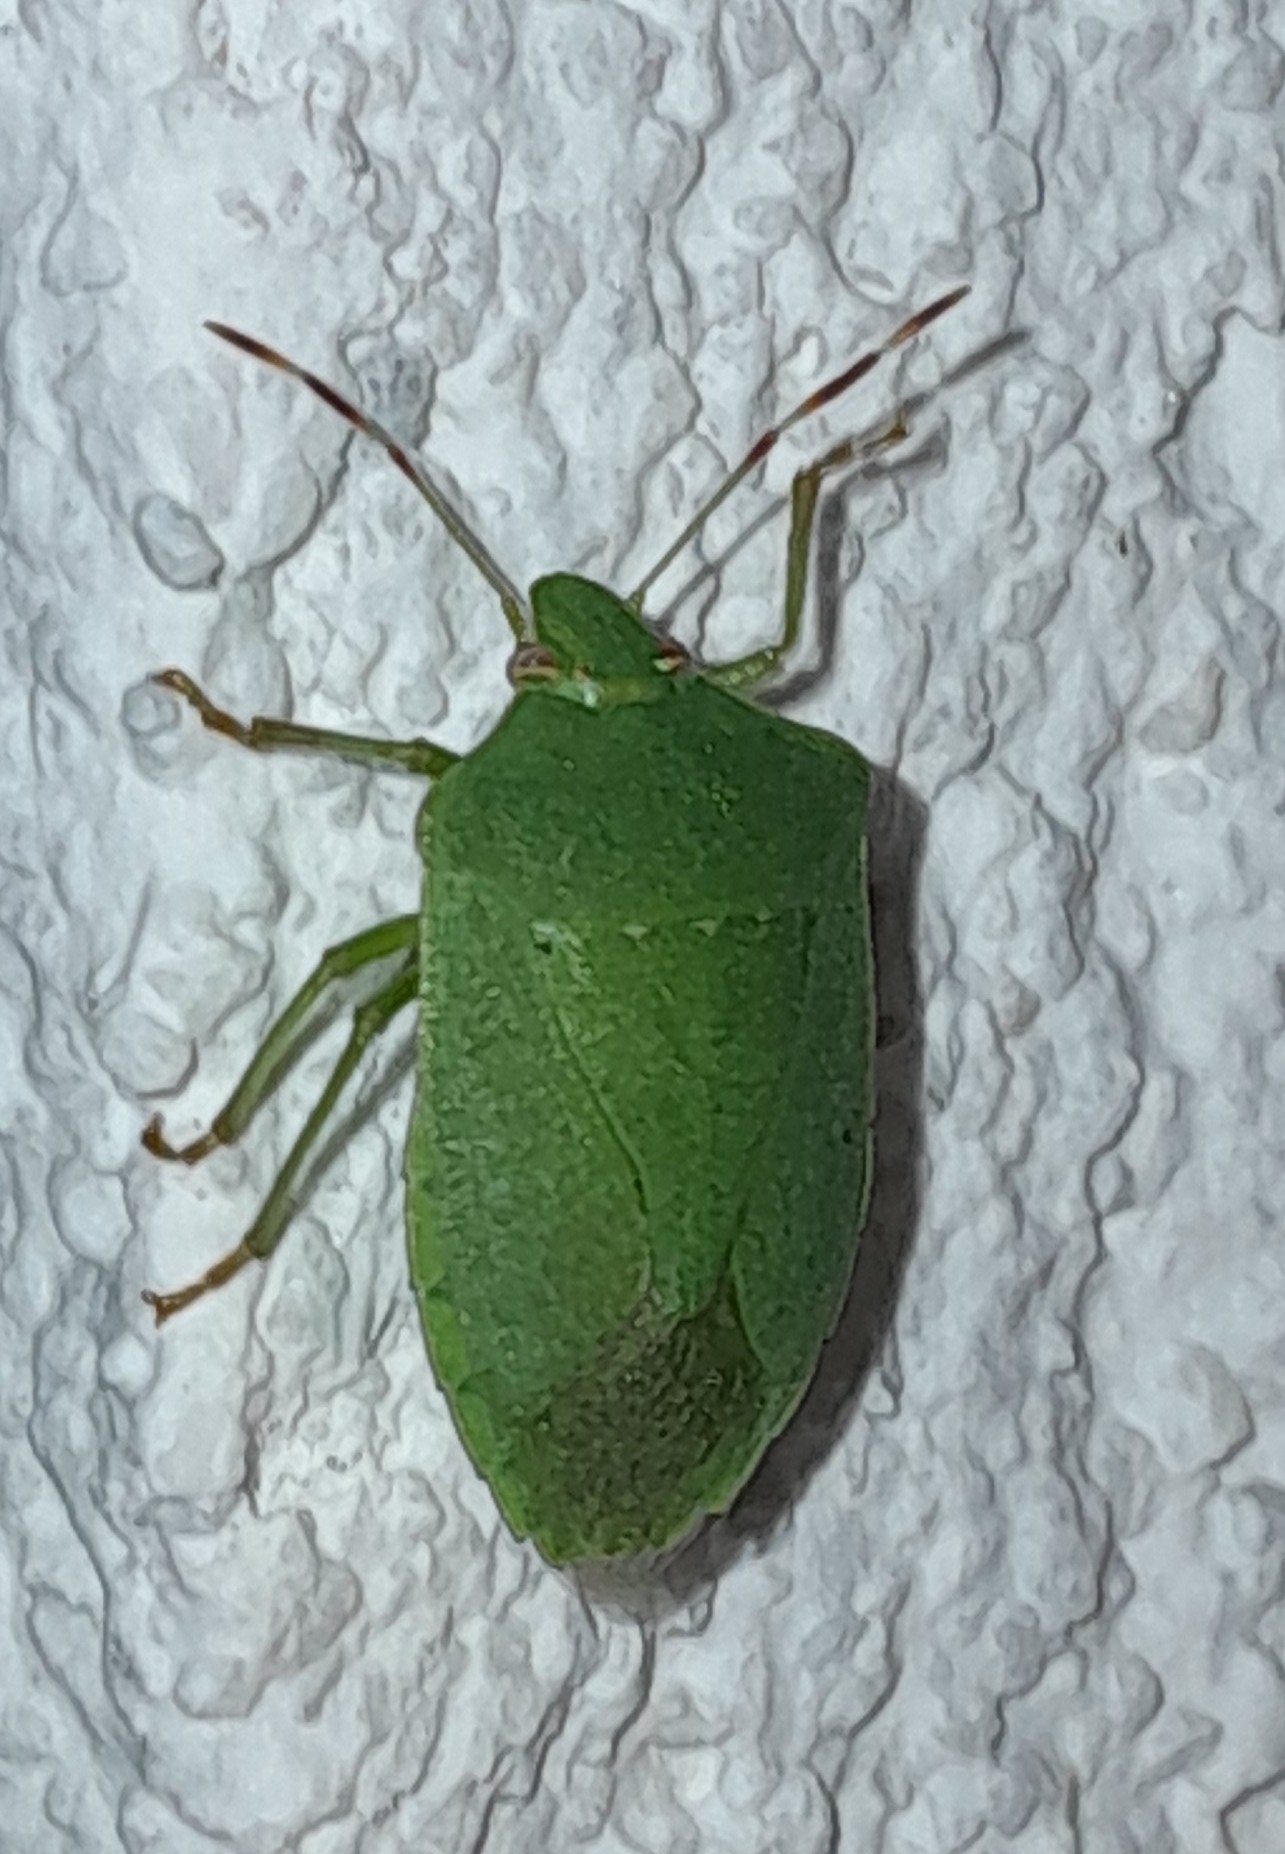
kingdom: Animalia
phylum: Arthropoda
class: Insecta
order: Hemiptera
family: Pentatomidae
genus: Nezara
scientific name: Nezara viridula
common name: Southern green stink bug
